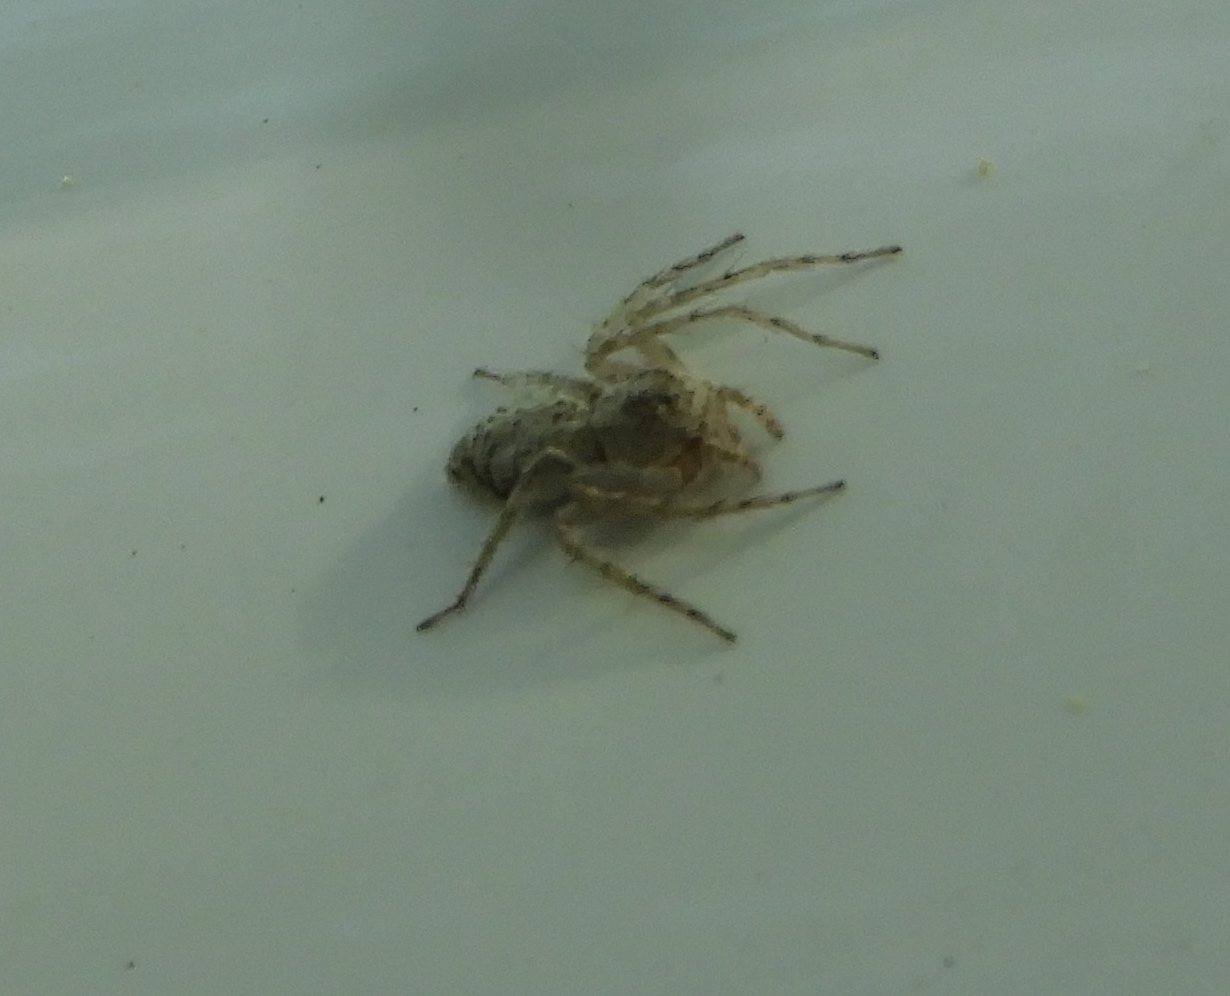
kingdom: Animalia
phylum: Arthropoda
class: Arachnida
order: Araneae
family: Oxyopidae
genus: Hamataliwa
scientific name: Hamataliwa grisea
